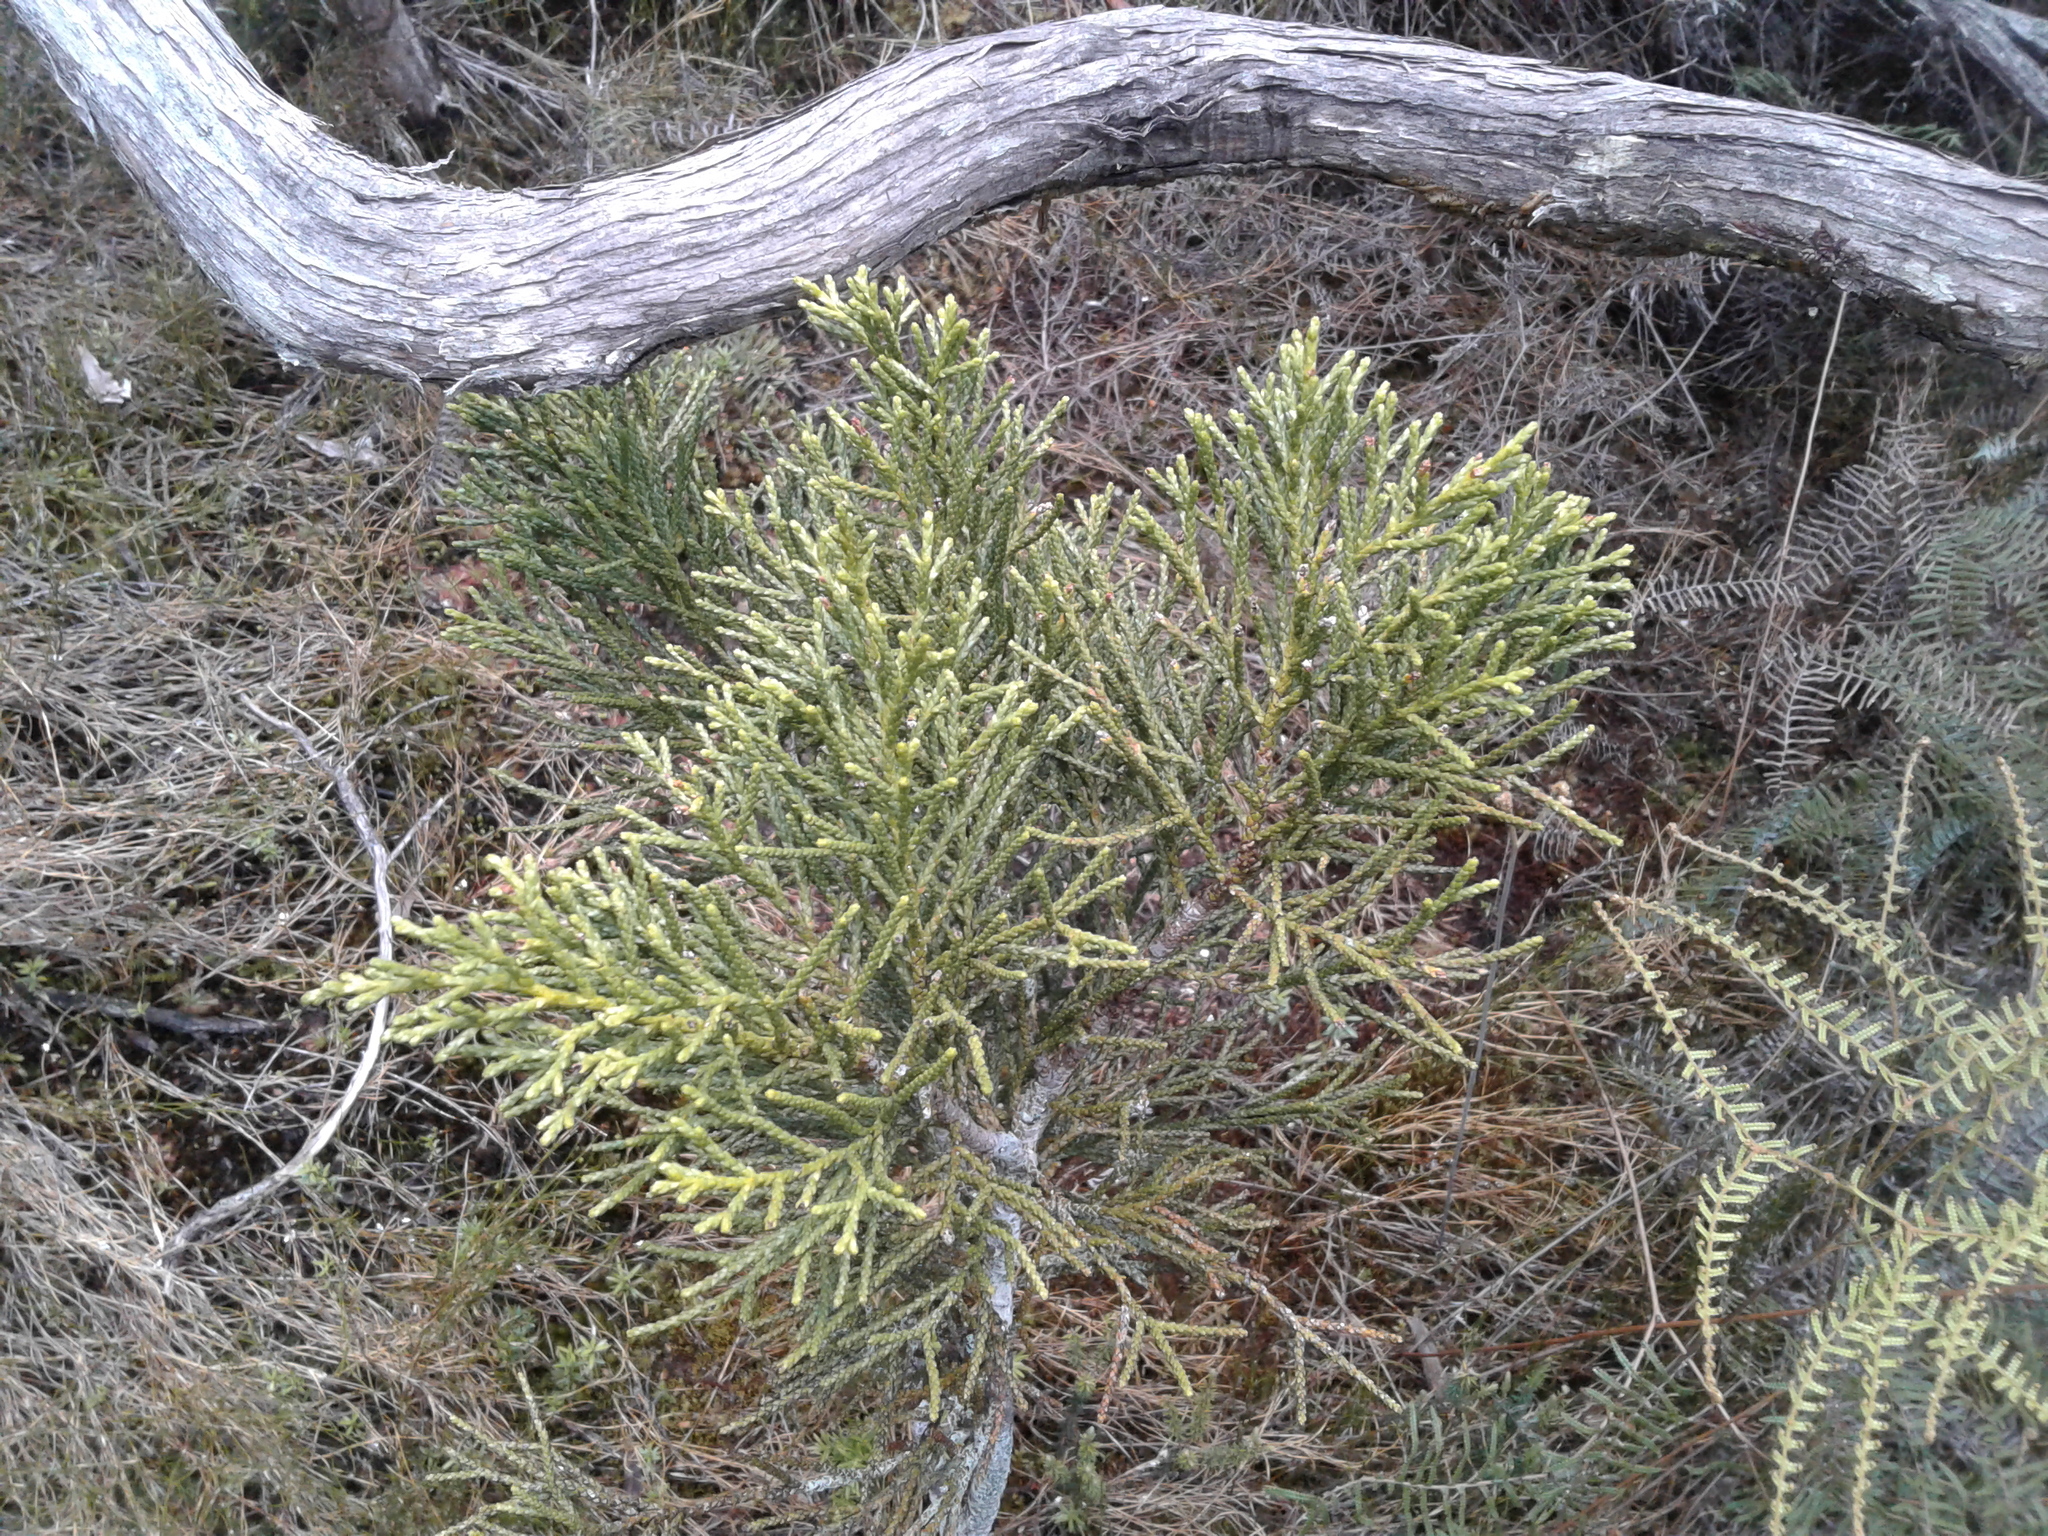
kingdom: Plantae
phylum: Tracheophyta
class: Pinopsida
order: Pinales
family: Podocarpaceae
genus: Halocarpus
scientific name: Halocarpus
